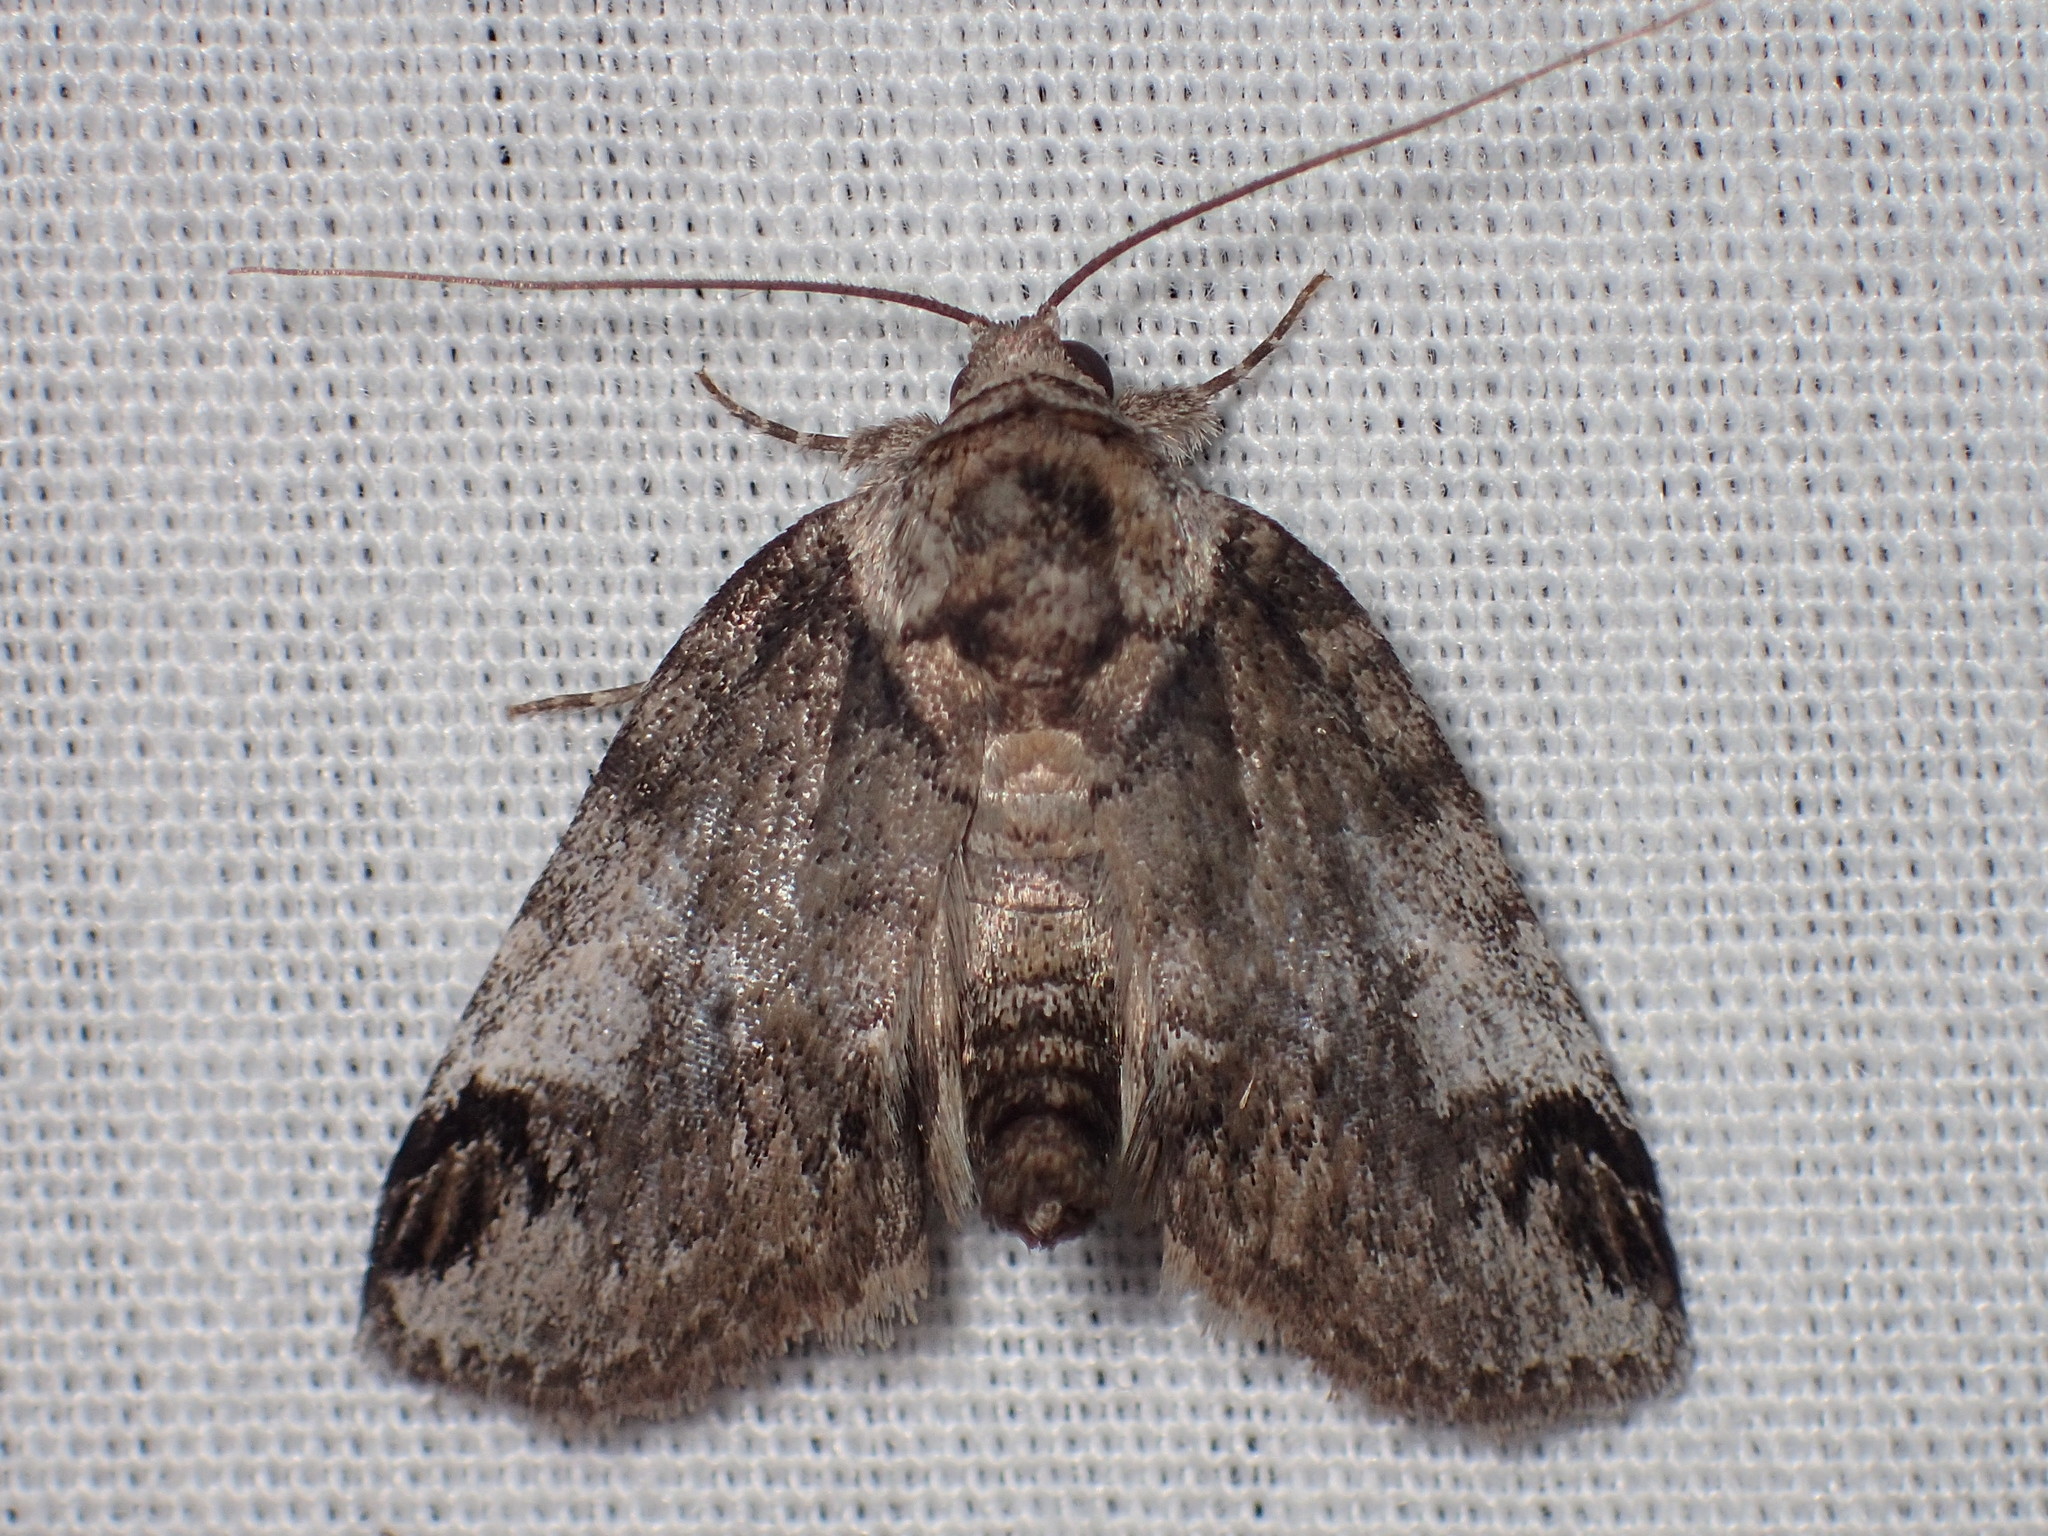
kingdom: Animalia
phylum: Arthropoda
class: Insecta
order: Lepidoptera
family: Nolidae
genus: Baileya
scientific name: Baileya dormitans
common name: Sleeping baileya moth
